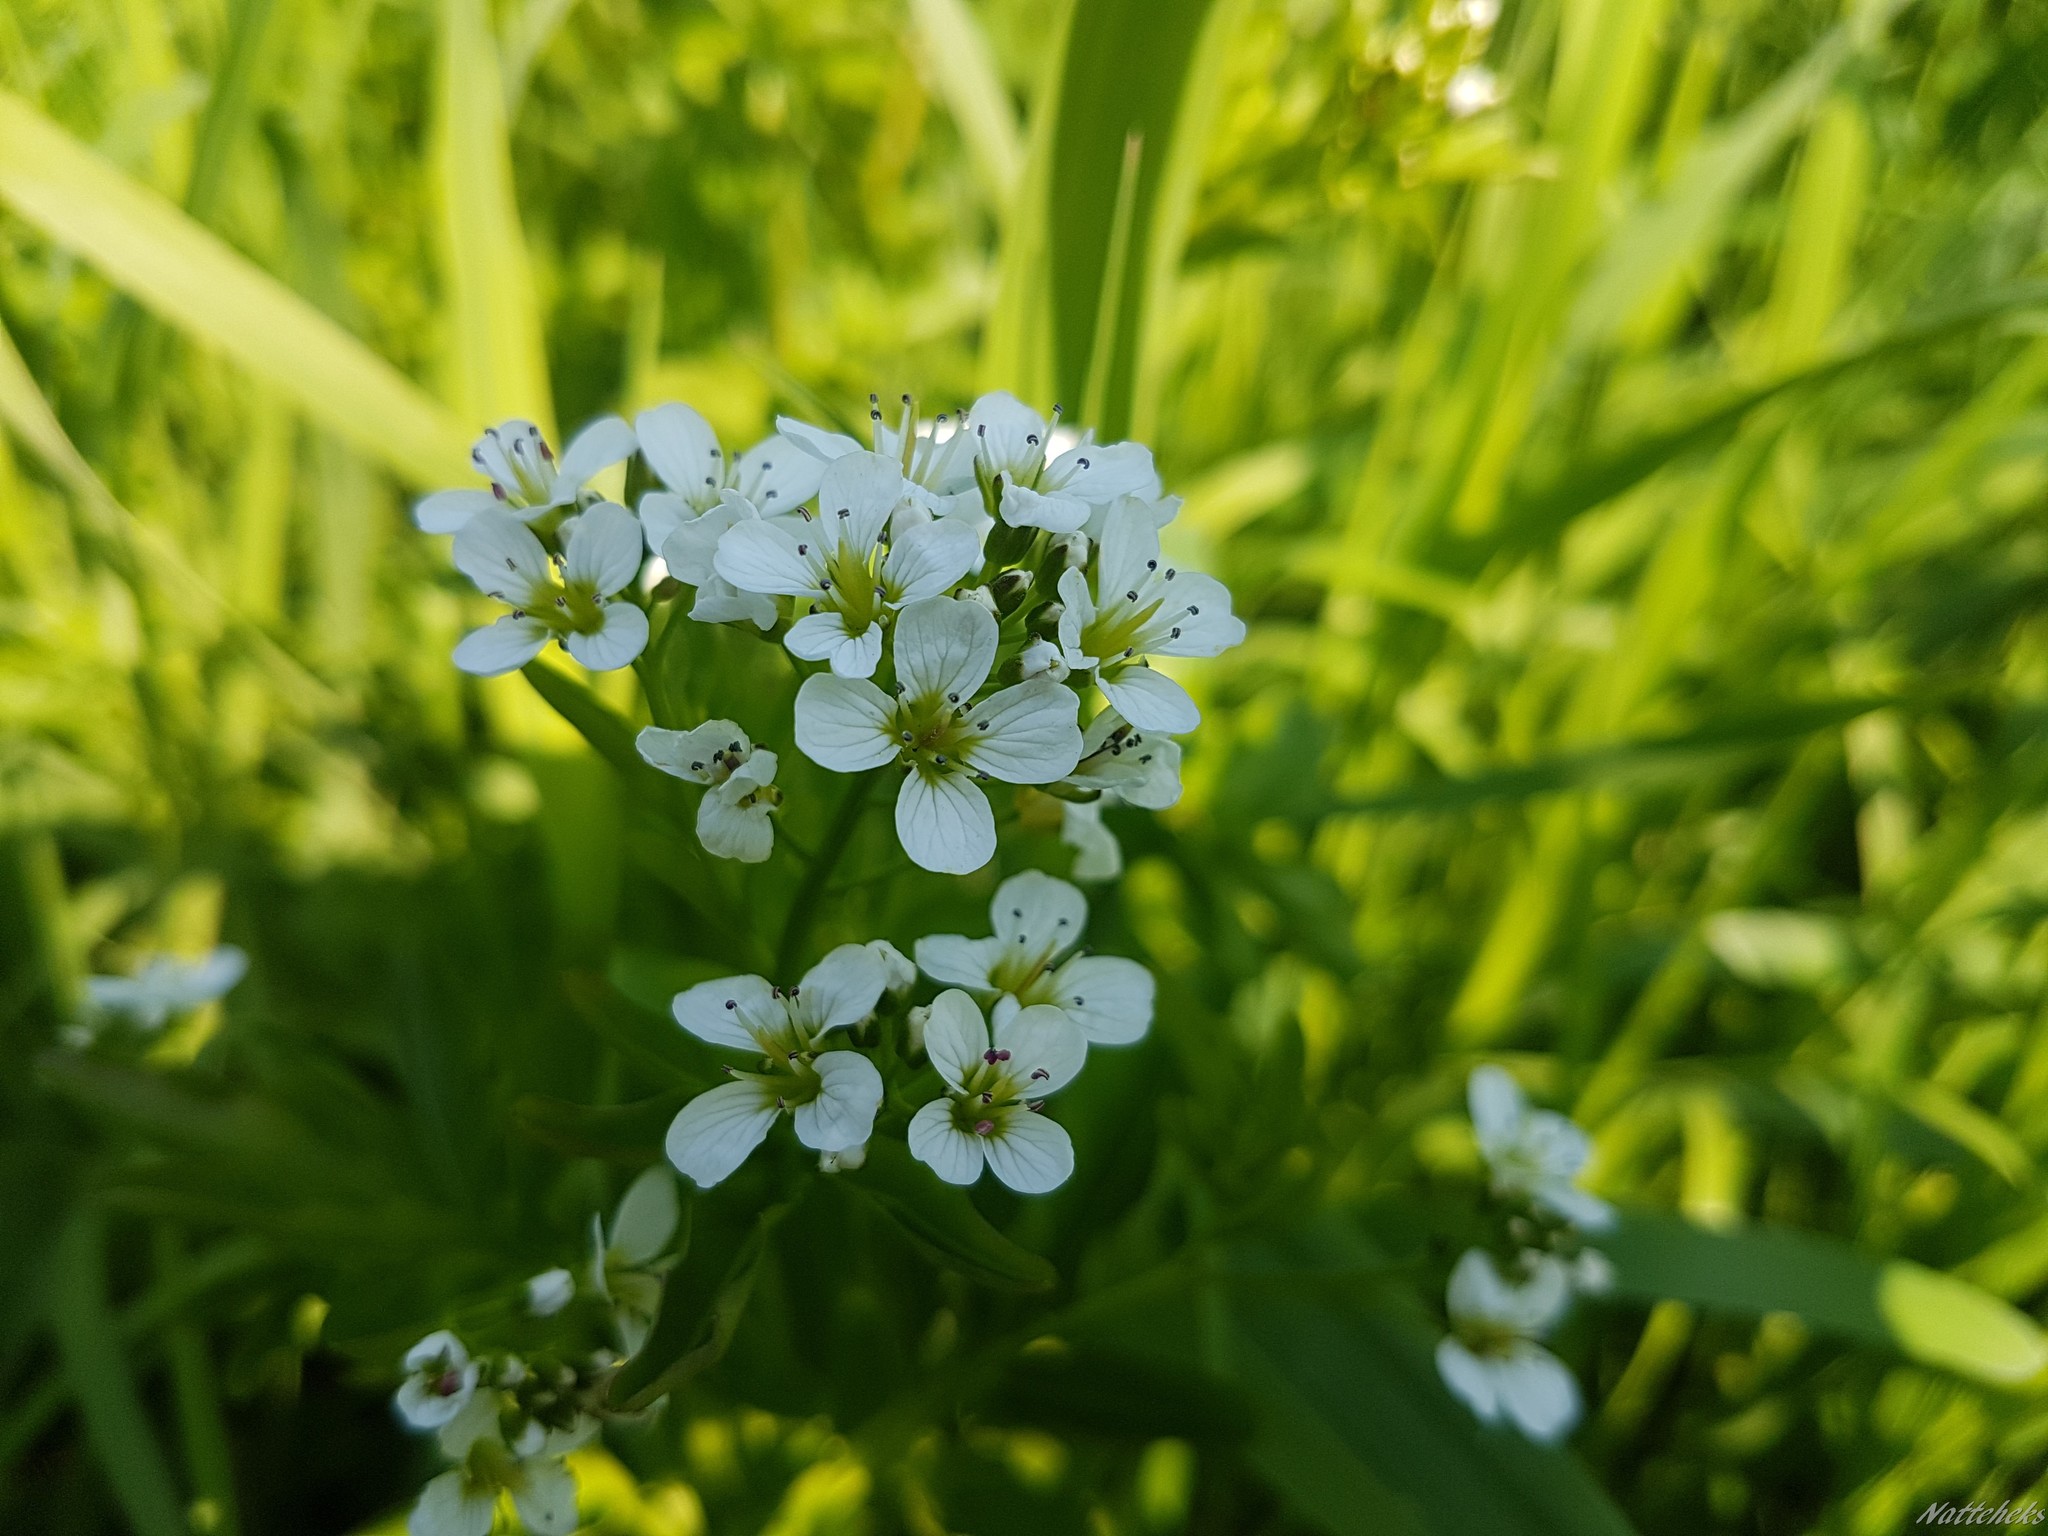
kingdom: Plantae
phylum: Tracheophyta
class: Magnoliopsida
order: Brassicales
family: Brassicaceae
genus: Cardamine
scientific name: Cardamine amara
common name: Large bitter-cress
